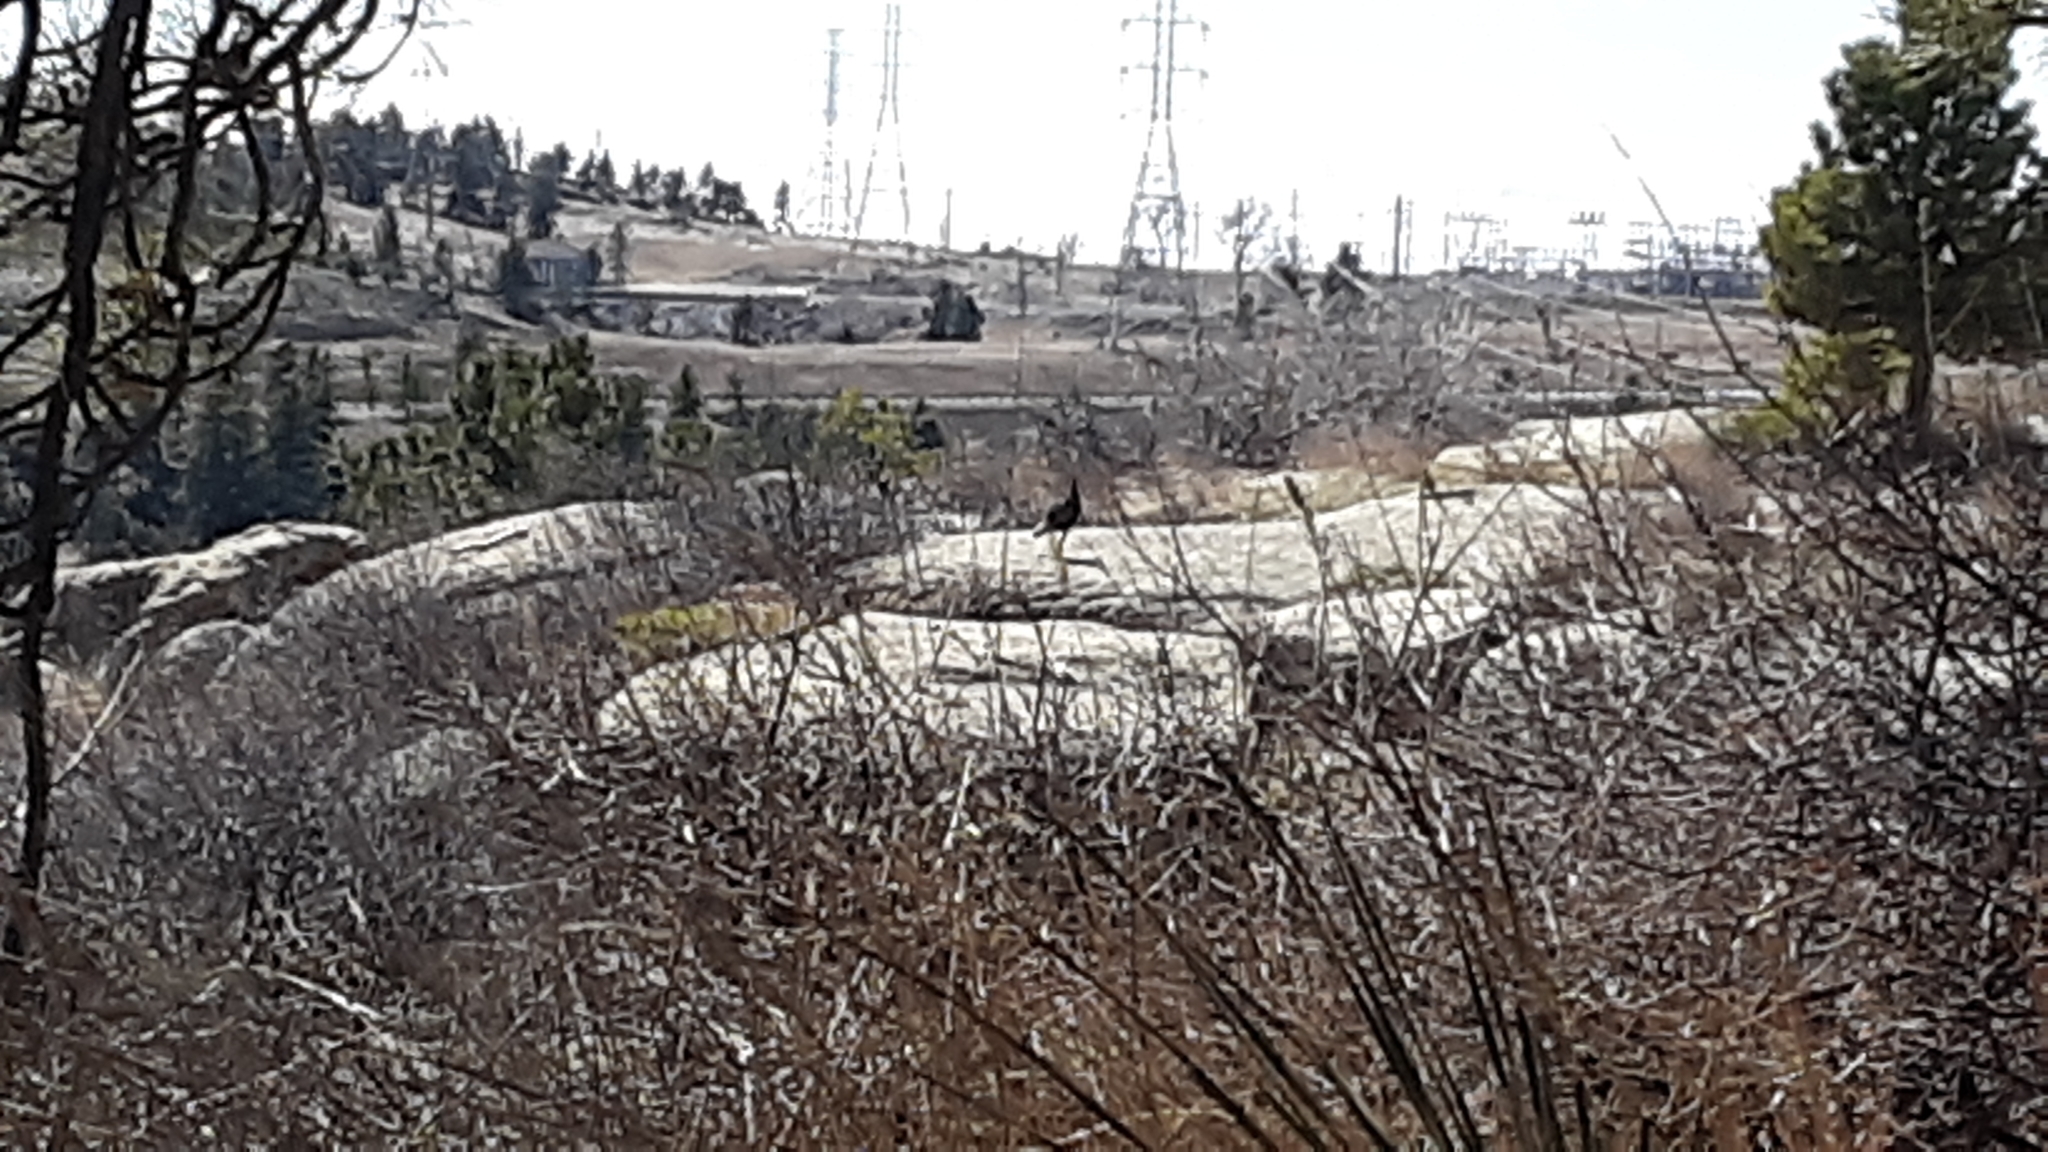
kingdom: Animalia
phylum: Chordata
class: Aves
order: Galliformes
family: Phasianidae
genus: Meleagris
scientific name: Meleagris gallopavo
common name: Wild turkey
